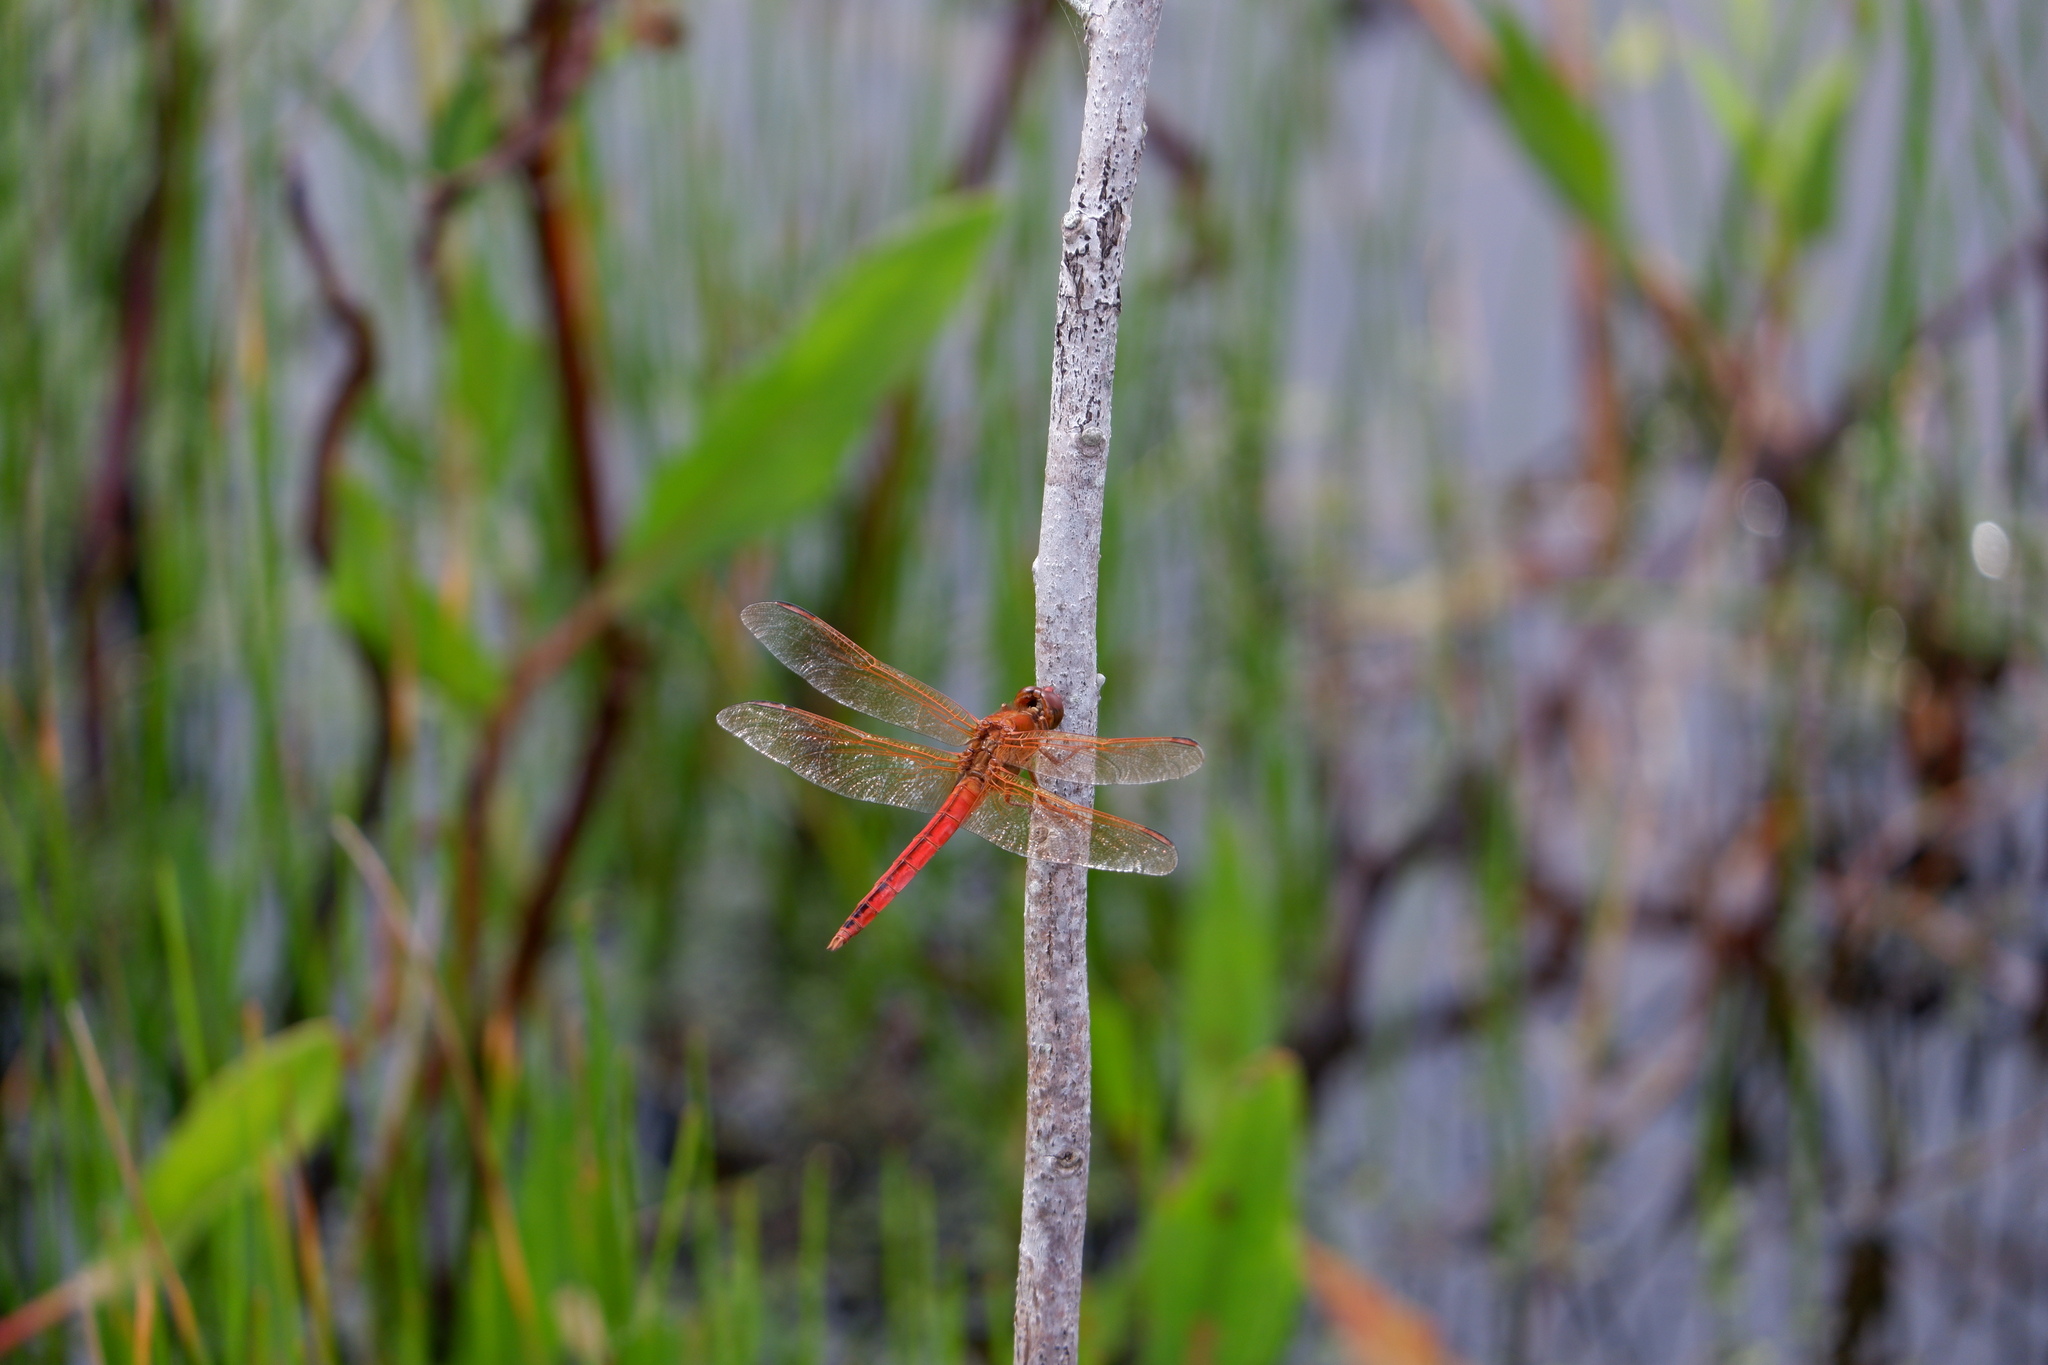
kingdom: Animalia
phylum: Arthropoda
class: Insecta
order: Odonata
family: Libellulidae
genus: Libellula
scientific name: Libellula needhami
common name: Needham's skimmer
